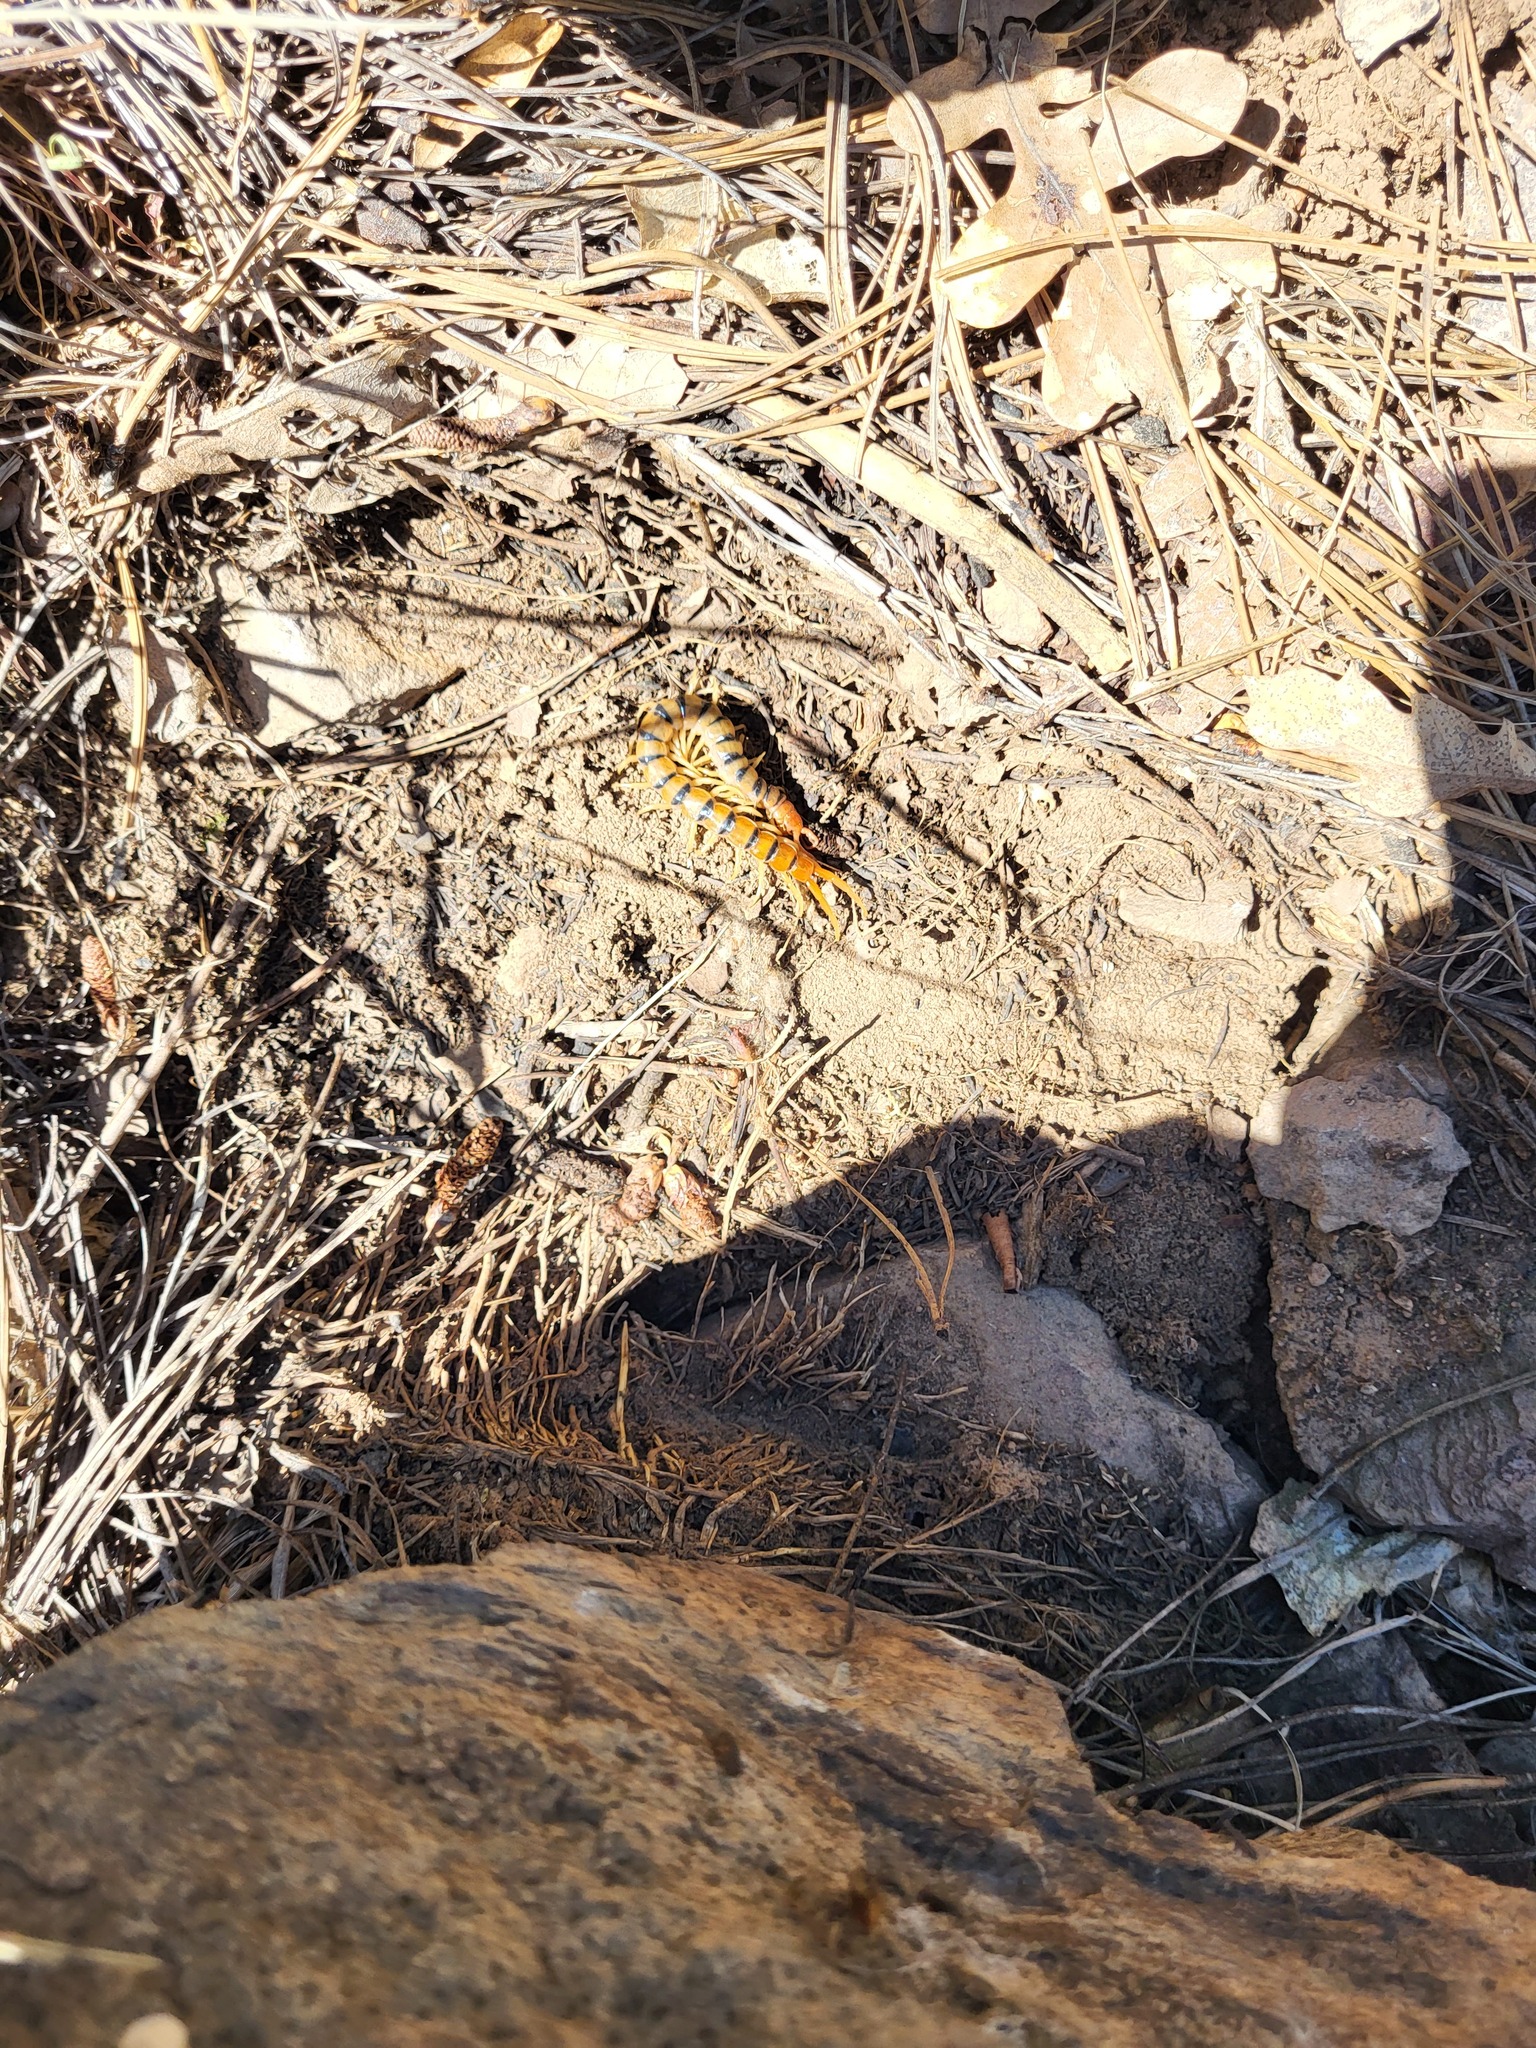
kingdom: Animalia
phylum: Arthropoda
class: Chilopoda
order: Scolopendromorpha
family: Scolopendridae
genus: Scolopendra
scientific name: Scolopendra polymorpha
